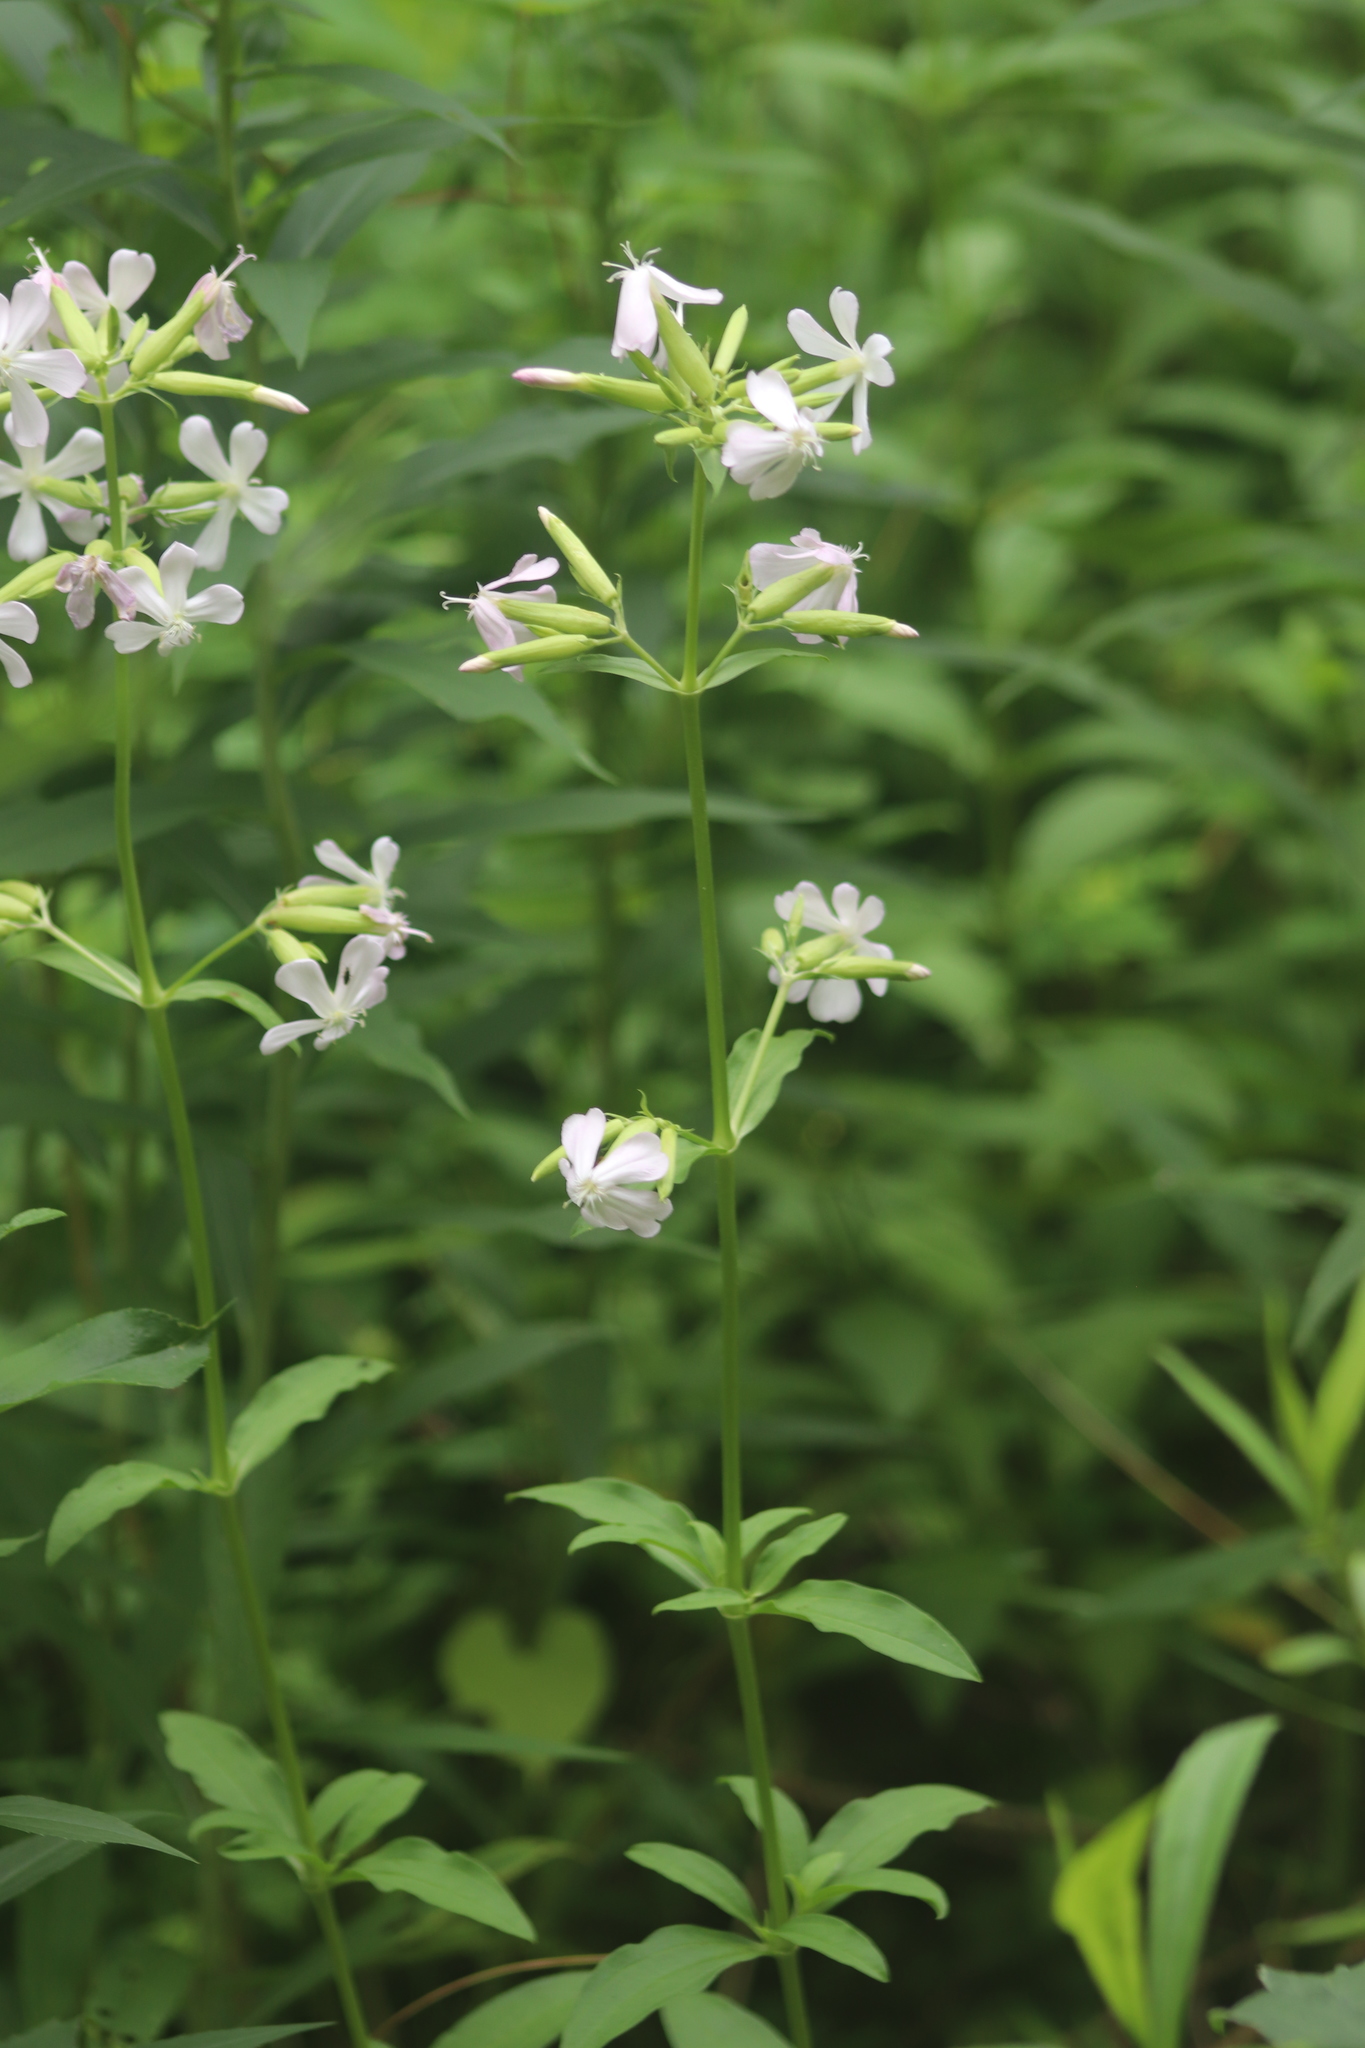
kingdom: Plantae
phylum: Tracheophyta
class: Magnoliopsida
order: Caryophyllales
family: Caryophyllaceae
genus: Saponaria
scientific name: Saponaria officinalis
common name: Soapwort
